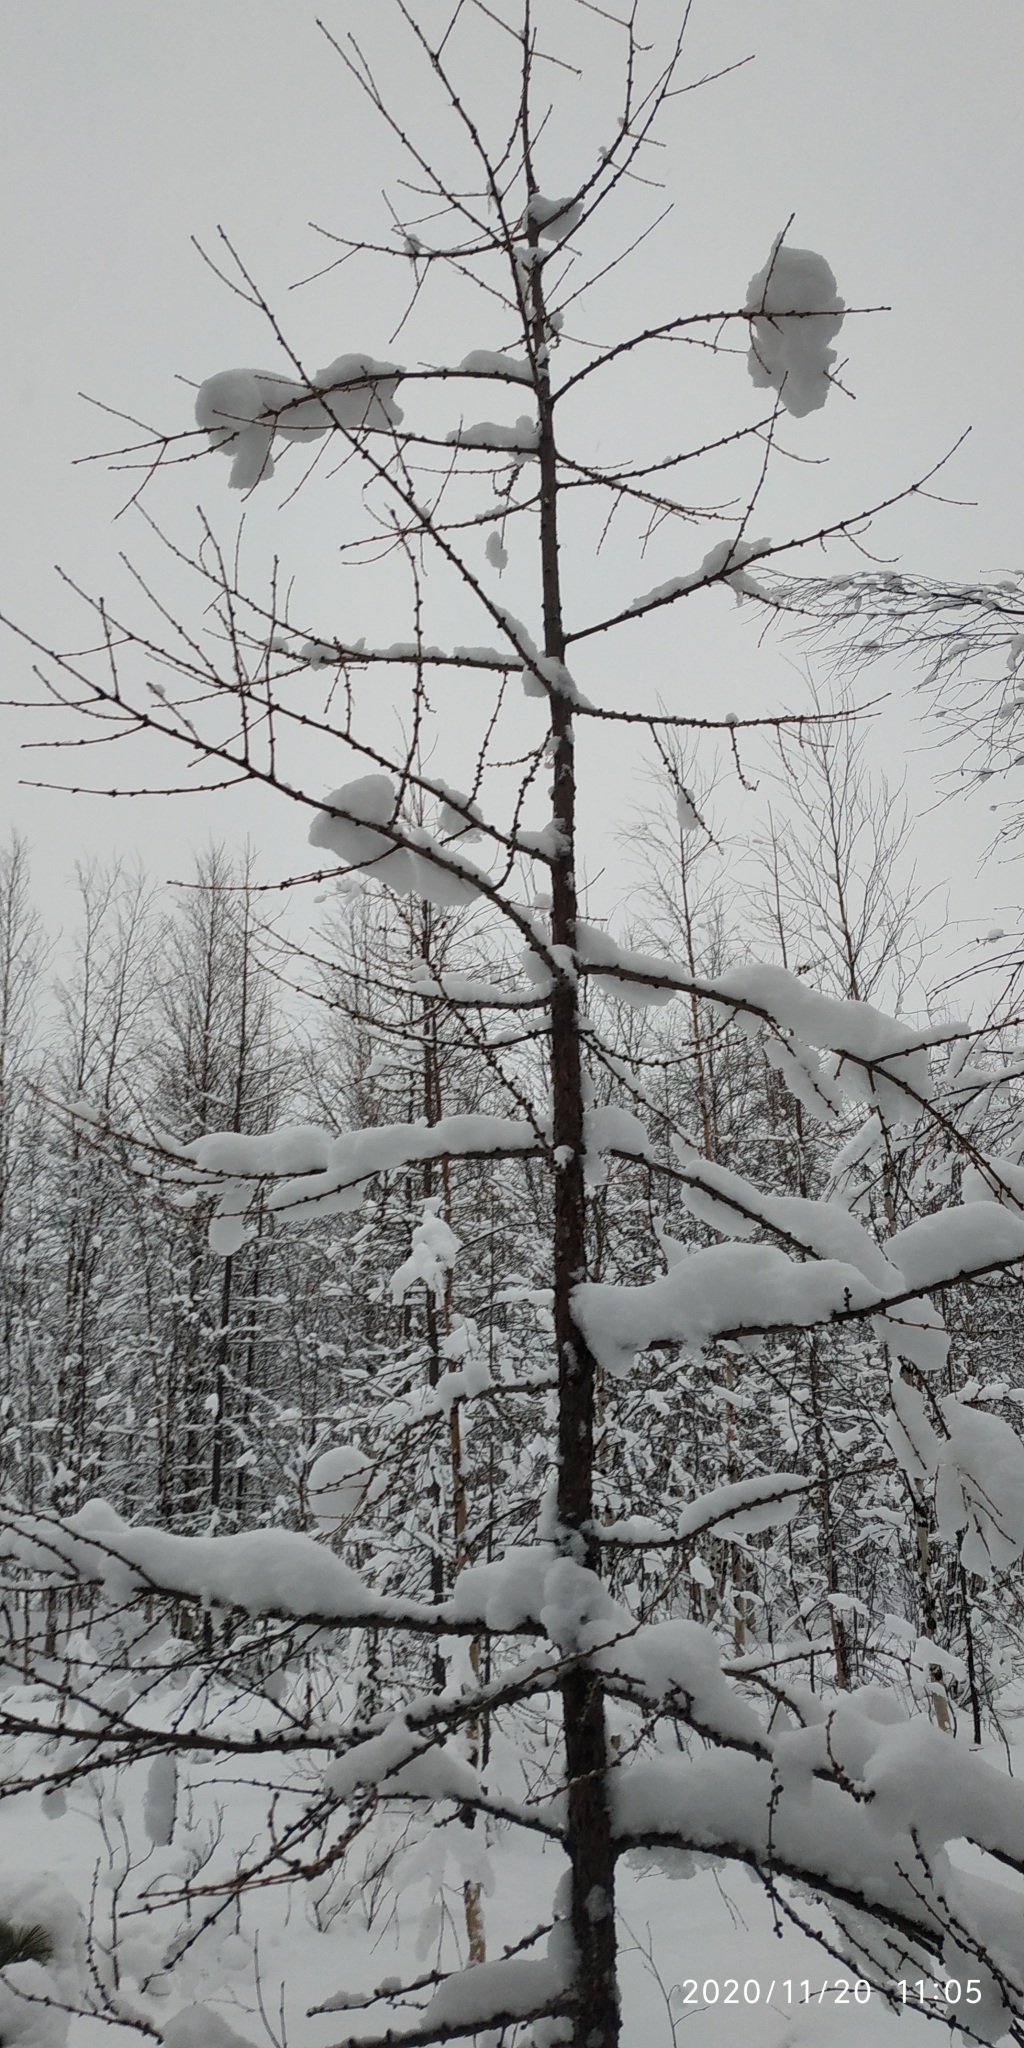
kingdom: Plantae
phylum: Tracheophyta
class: Pinopsida
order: Pinales
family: Pinaceae
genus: Larix
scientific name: Larix sibirica
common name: Siberian larch
